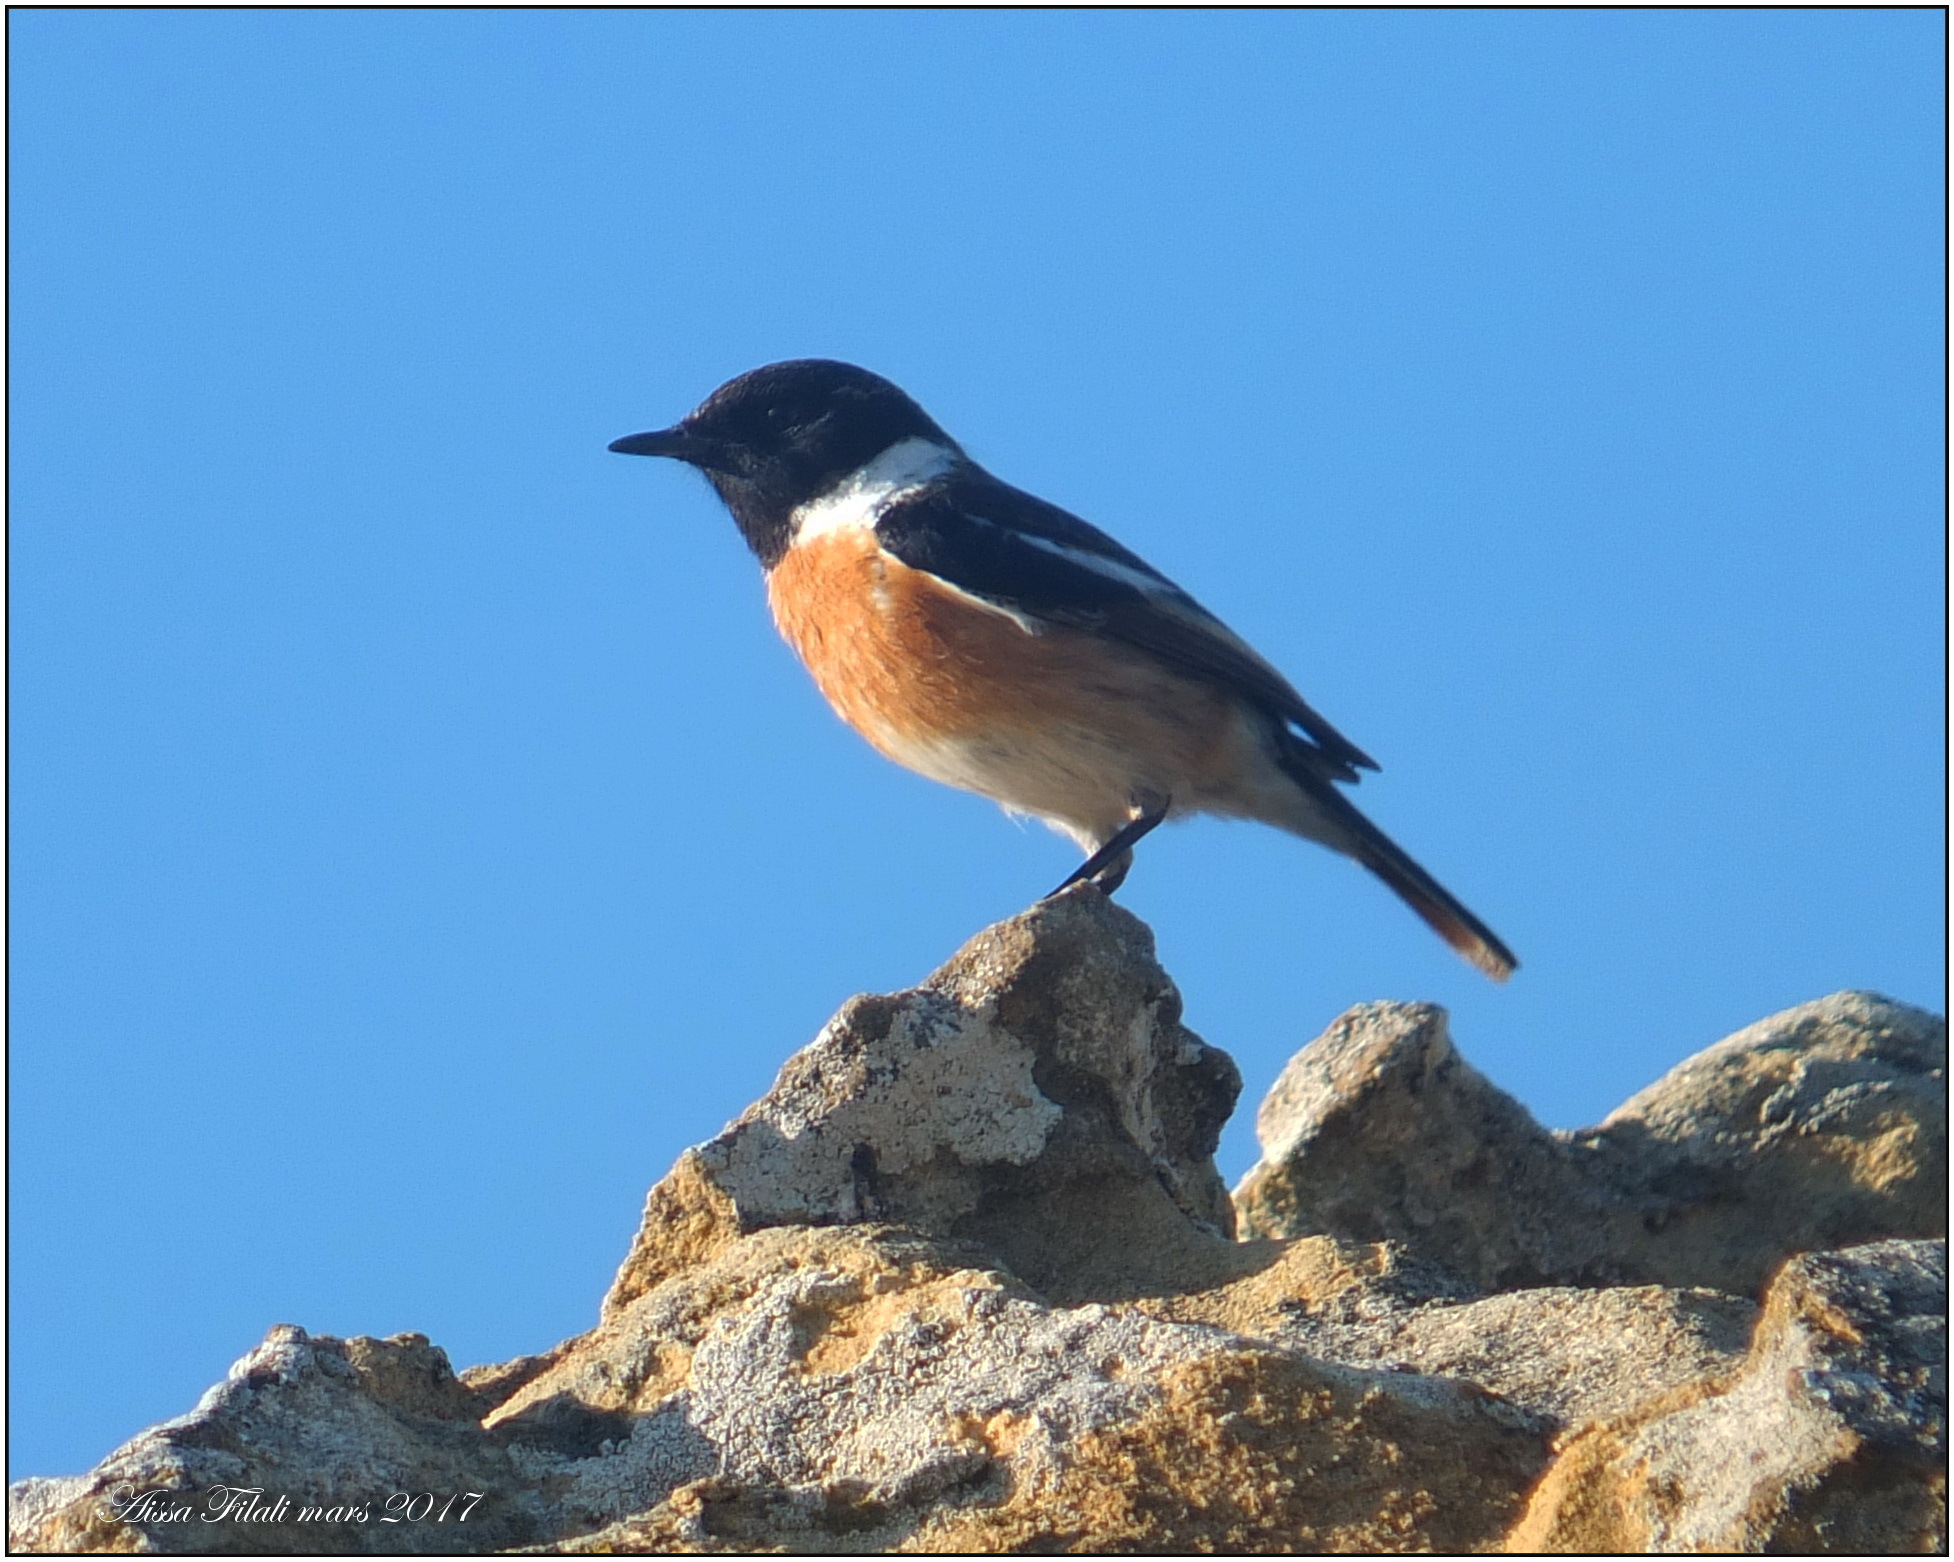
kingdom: Animalia
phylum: Chordata
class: Aves
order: Passeriformes
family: Muscicapidae
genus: Saxicola
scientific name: Saxicola rubicola
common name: European stonechat
